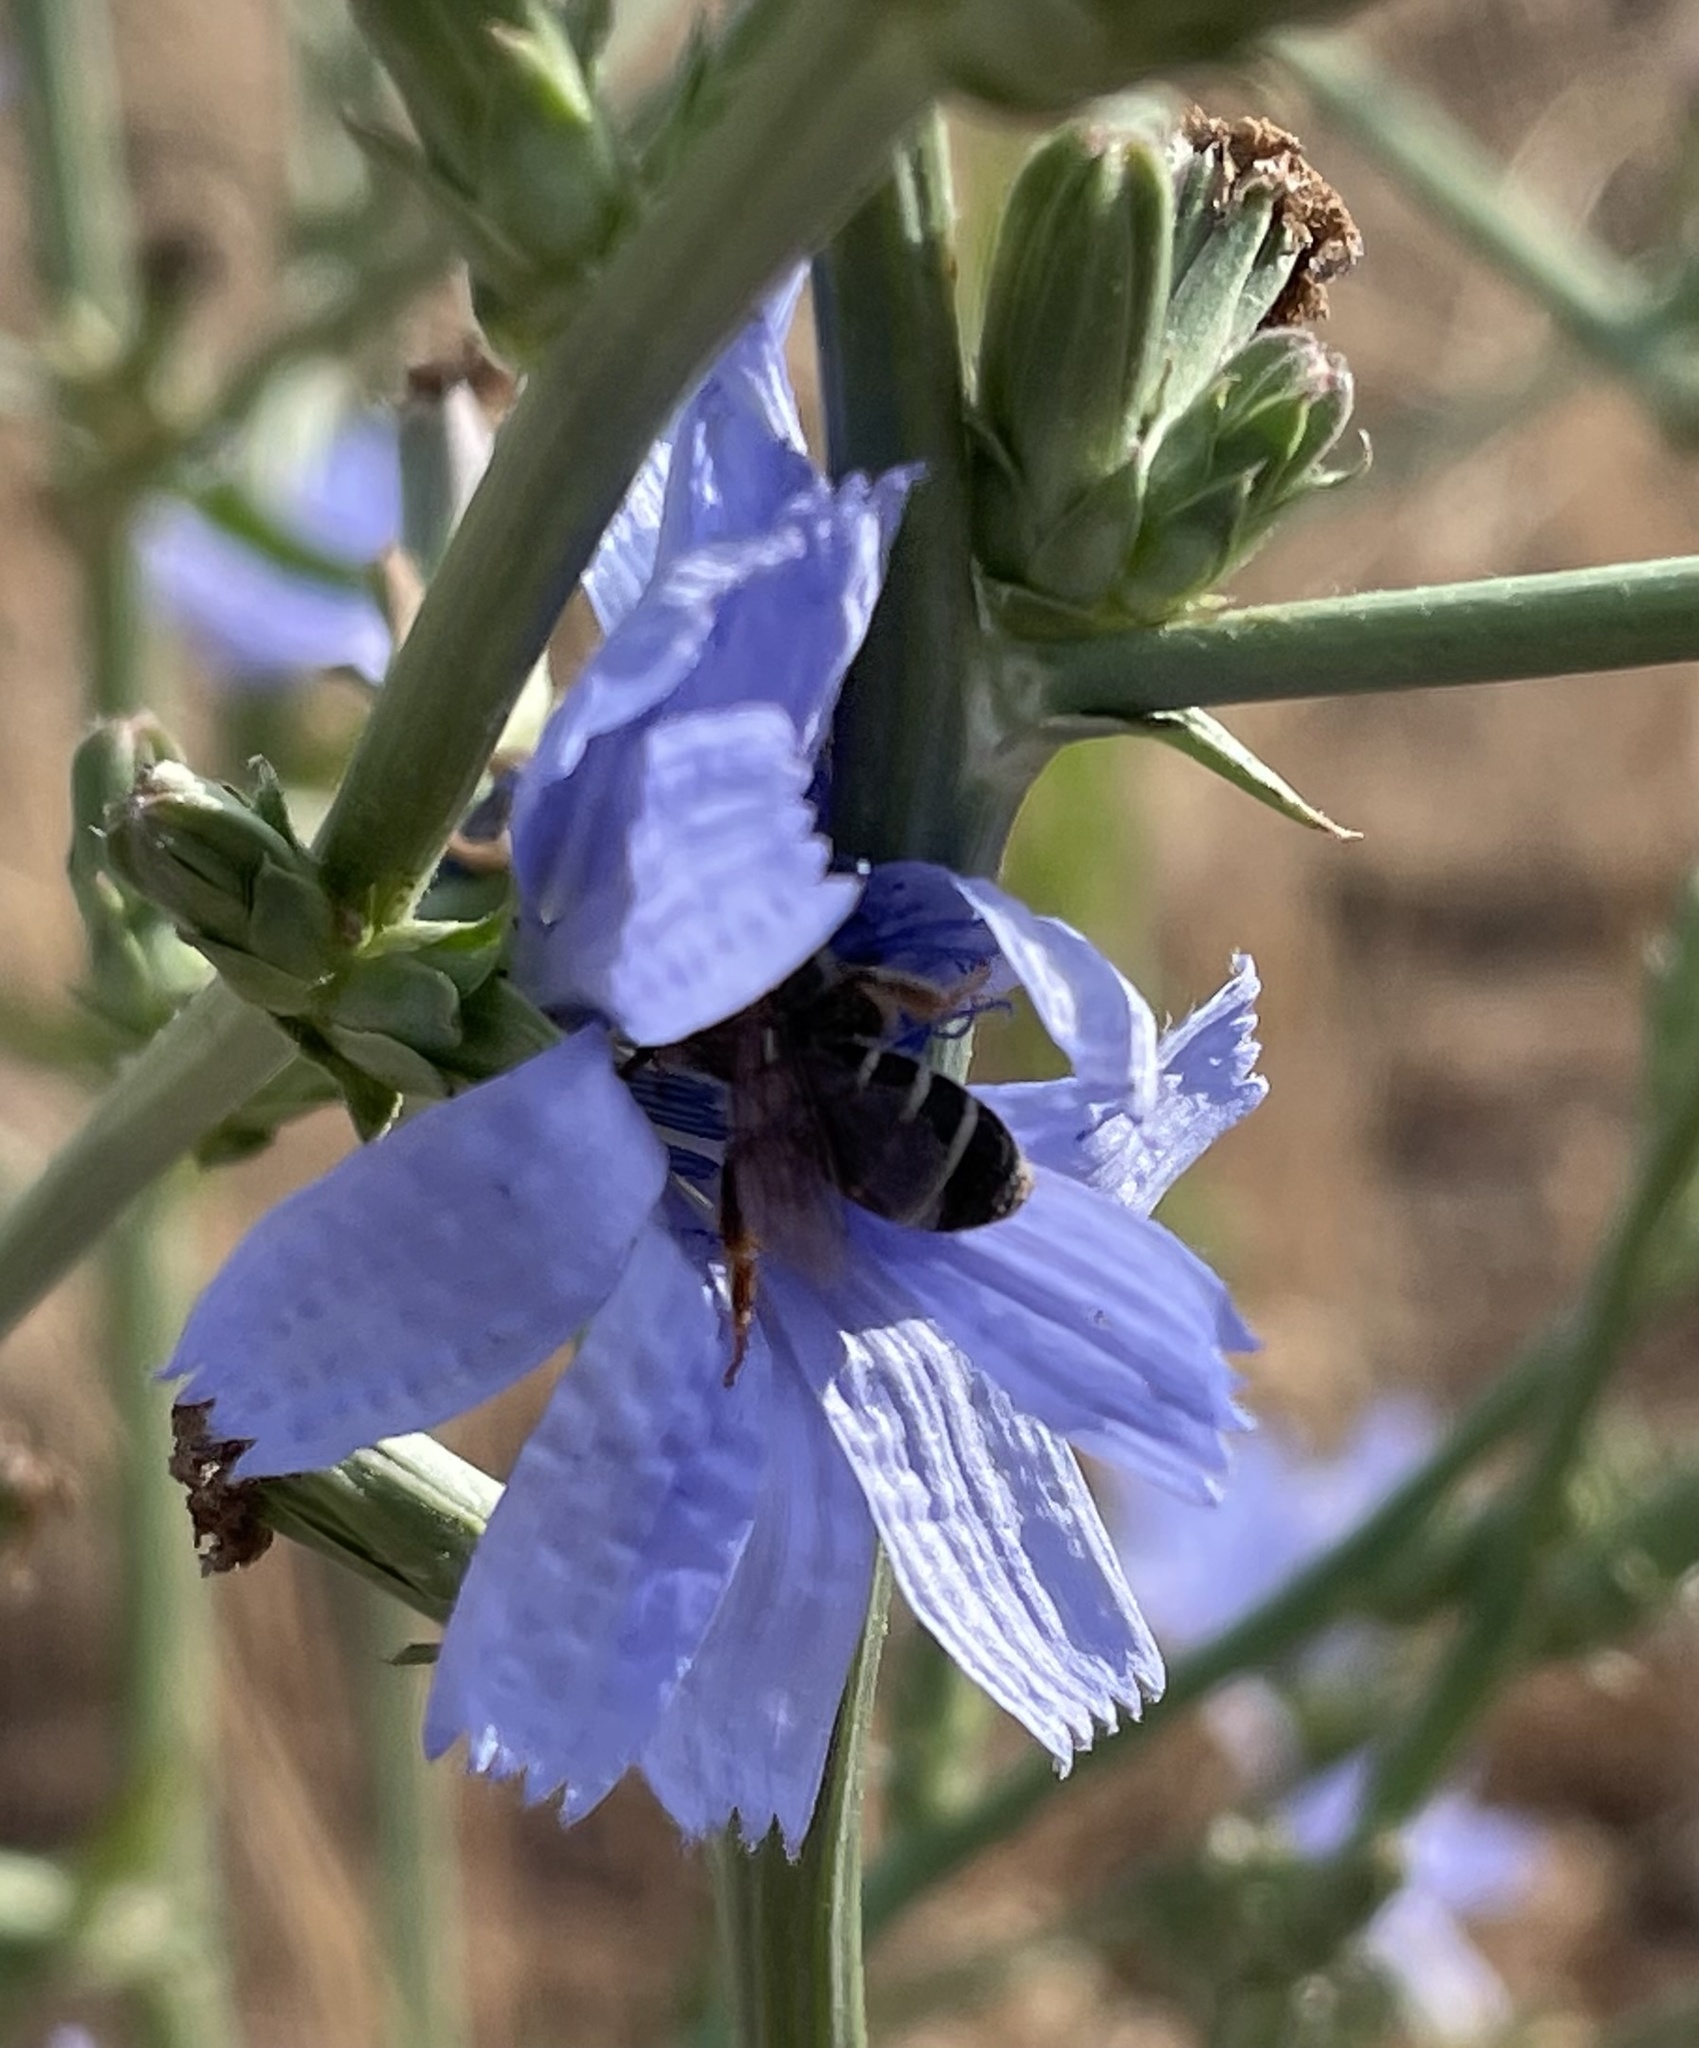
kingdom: Plantae
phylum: Tracheophyta
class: Magnoliopsida
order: Asterales
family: Asteraceae
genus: Cichorium
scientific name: Cichorium intybus
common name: Chicory
